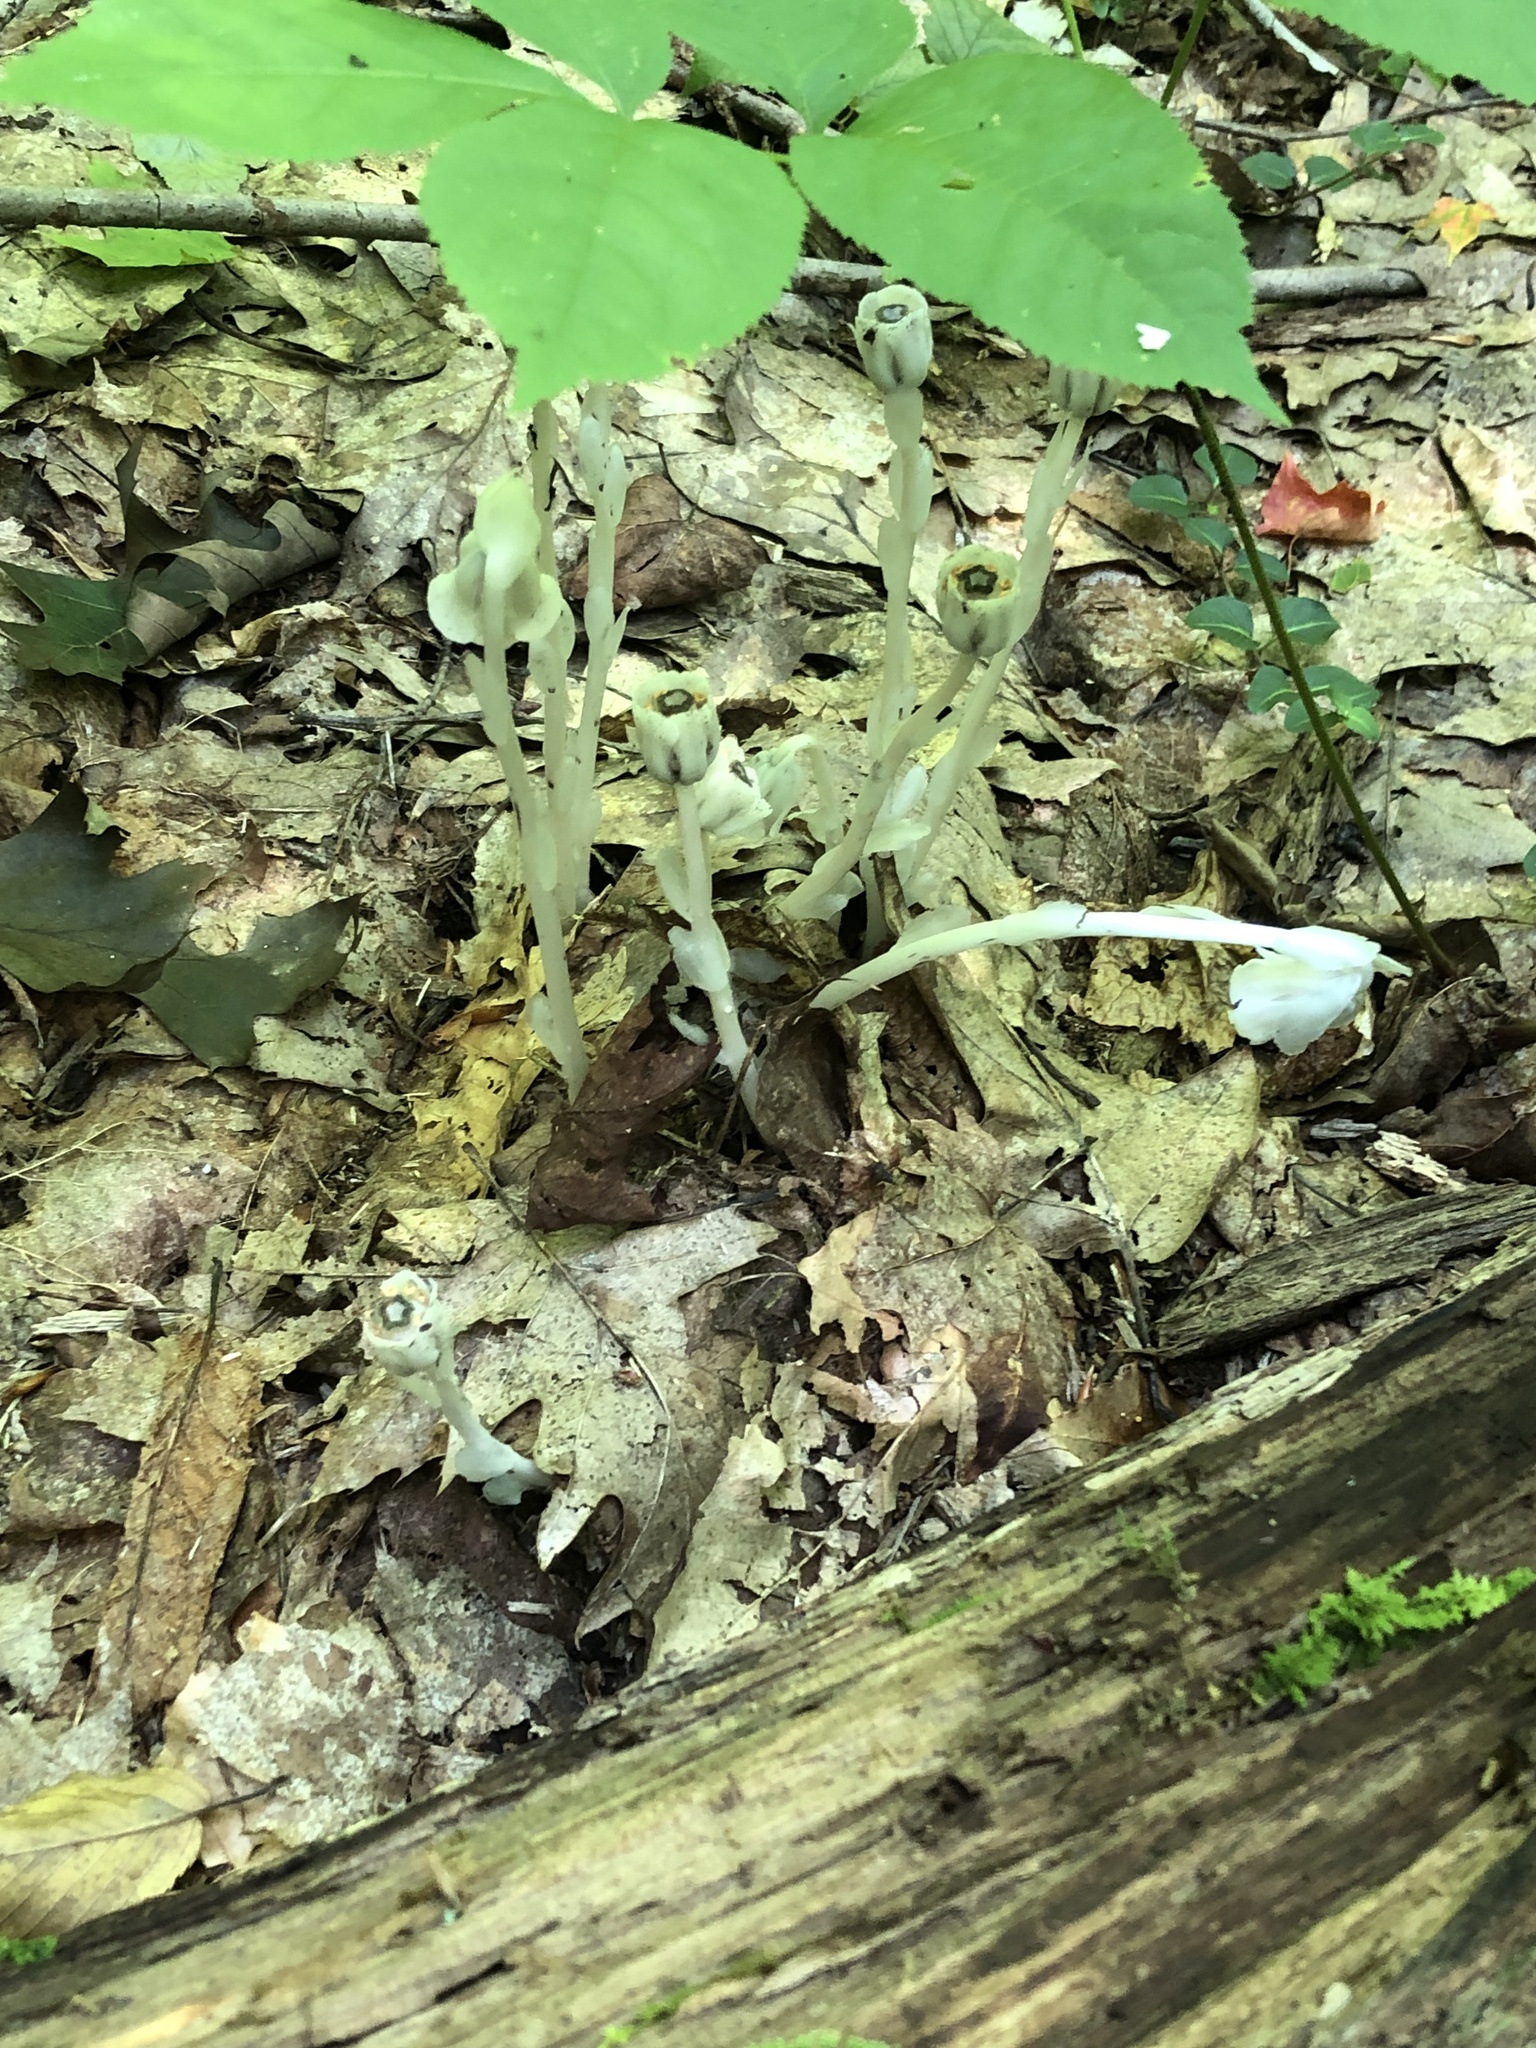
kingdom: Plantae
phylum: Tracheophyta
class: Magnoliopsida
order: Ericales
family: Ericaceae
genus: Monotropa
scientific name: Monotropa uniflora
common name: Convulsion root
